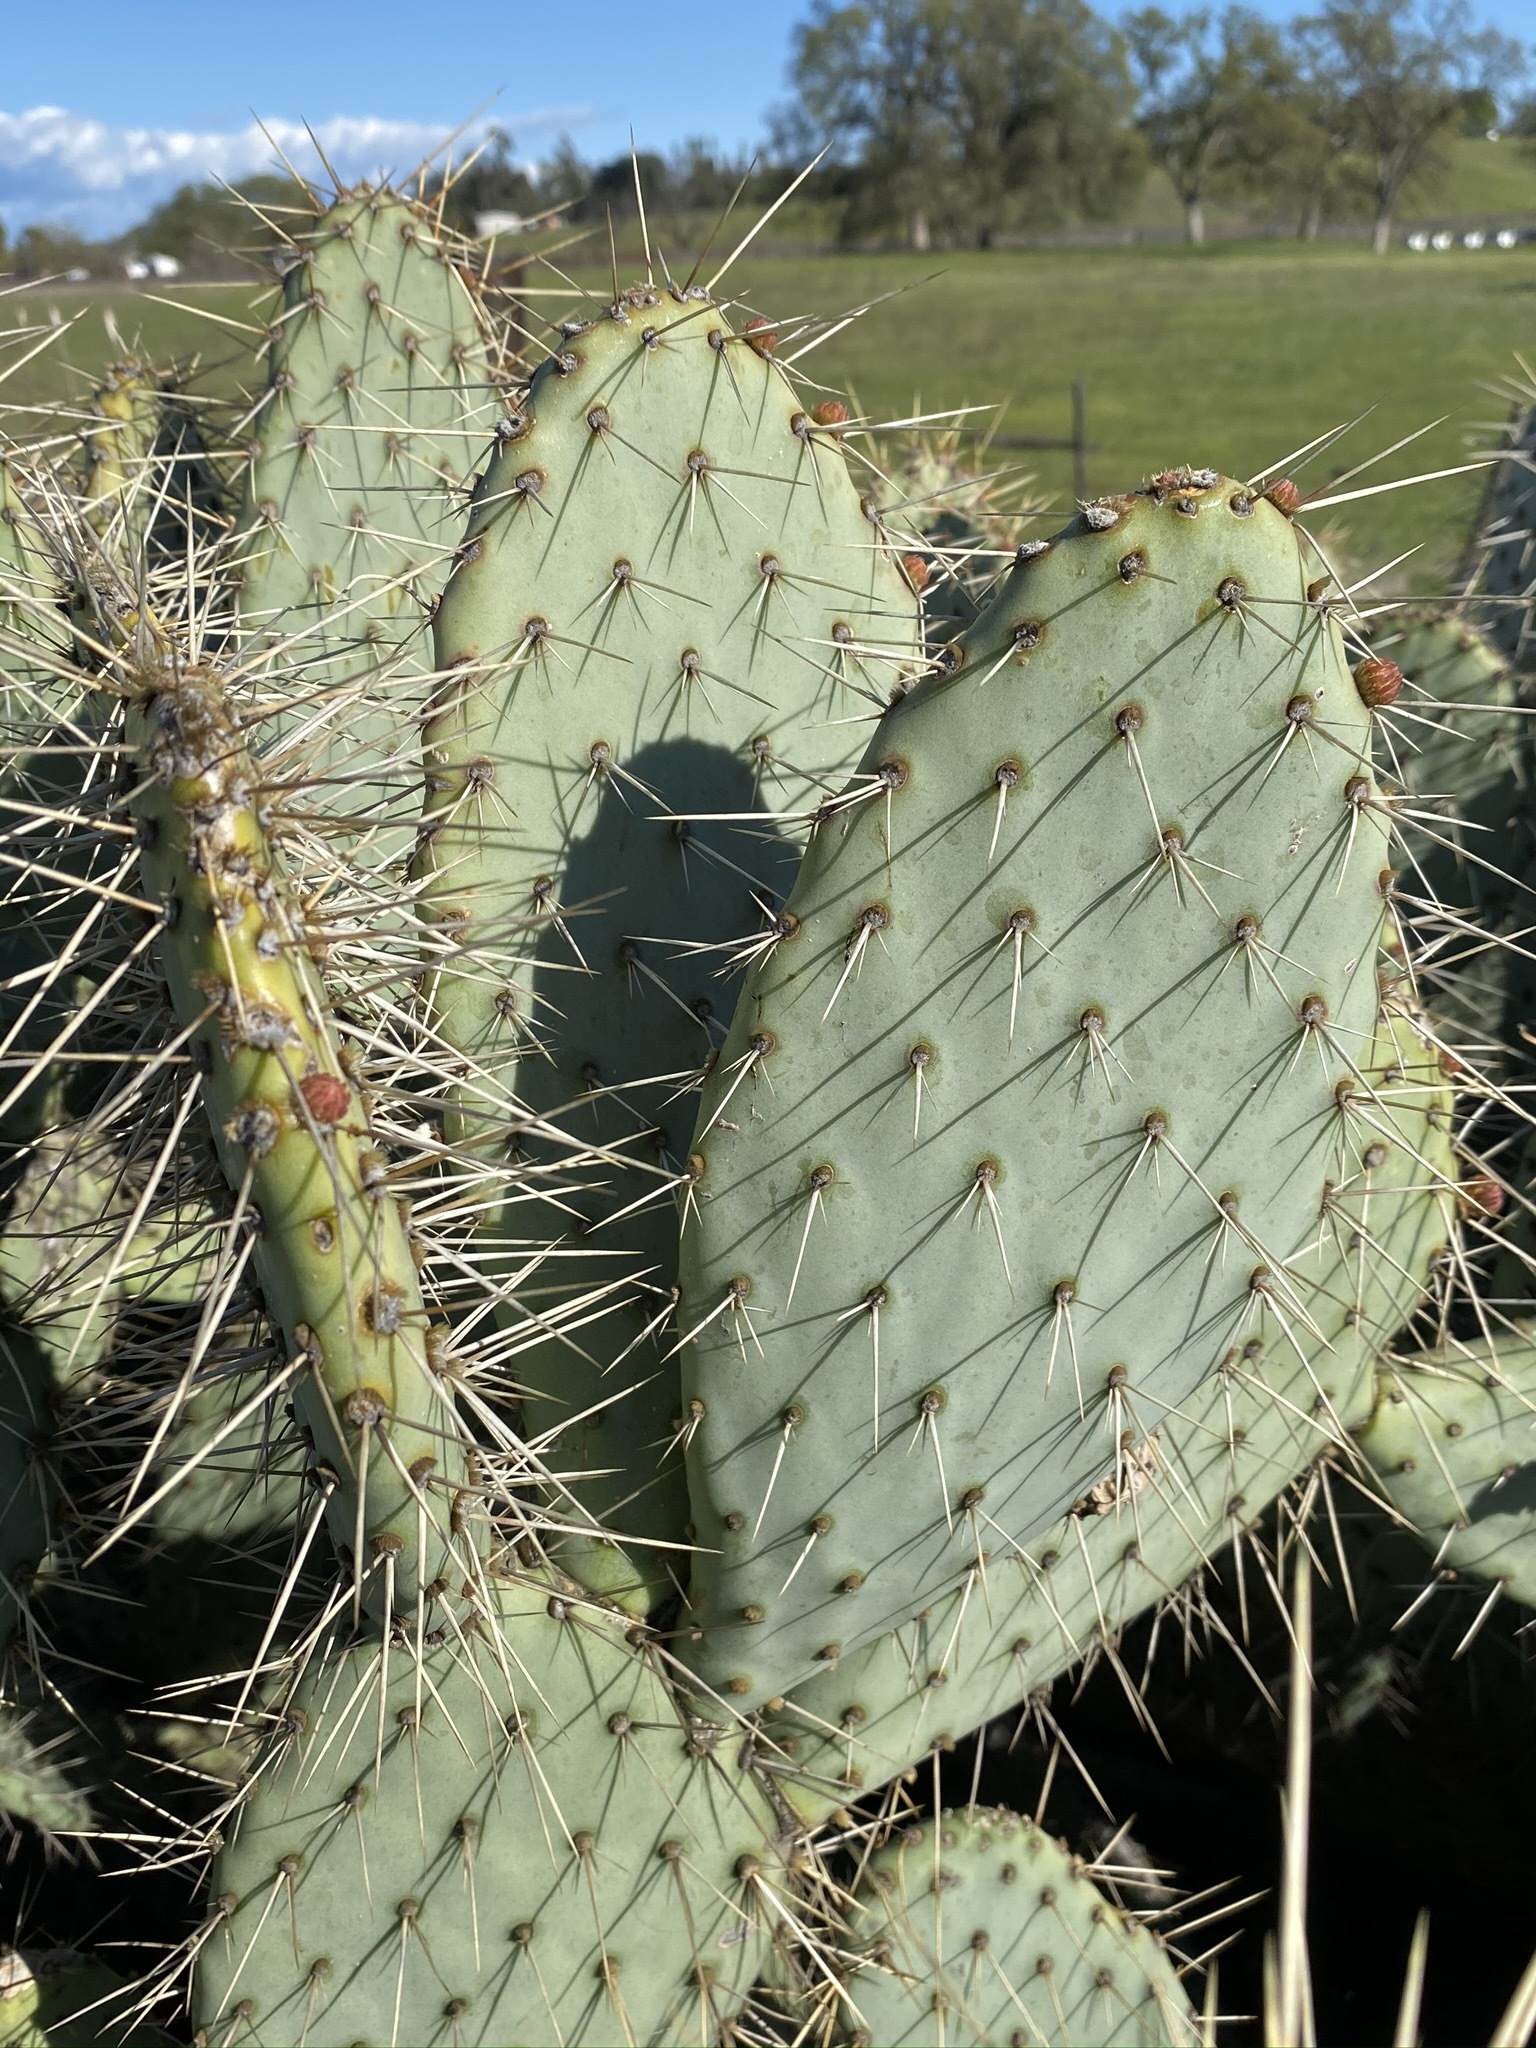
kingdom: Plantae
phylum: Tracheophyta
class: Magnoliopsida
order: Caryophyllales
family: Cactaceae
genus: Opuntia
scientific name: Opuntia littoralis
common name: Coastal prickly-pear
